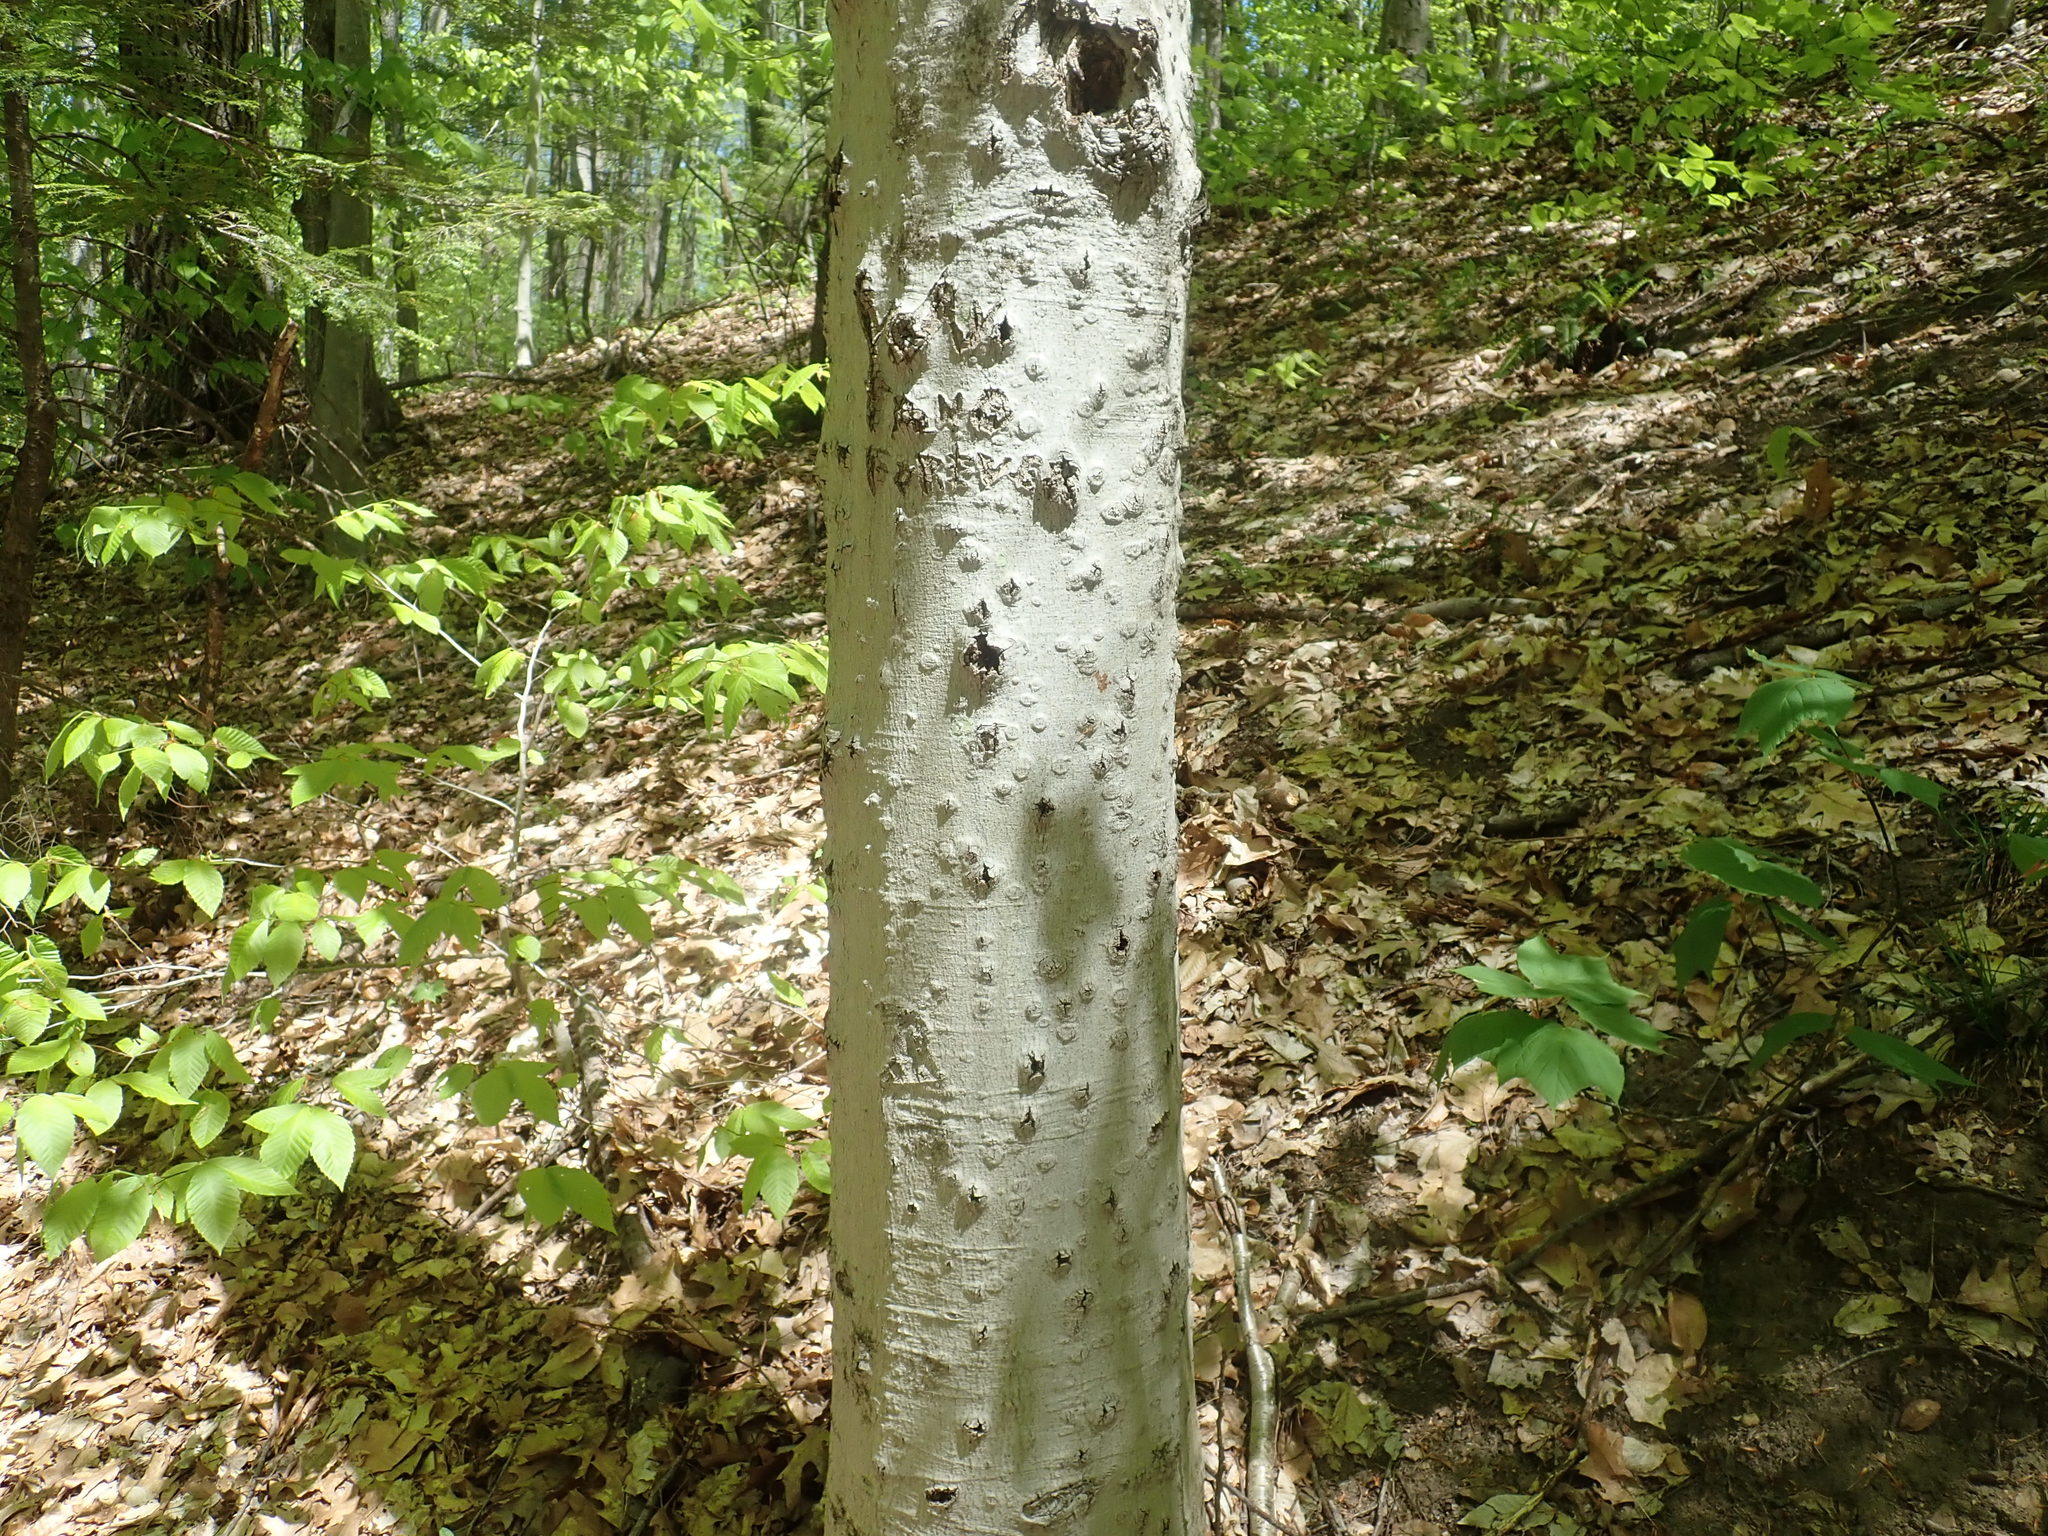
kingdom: Fungi
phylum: Ascomycota
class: Sordariomycetes
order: Hypocreales
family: Nectriaceae
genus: Neonectria
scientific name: Neonectria faginata
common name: Beech bark canker
